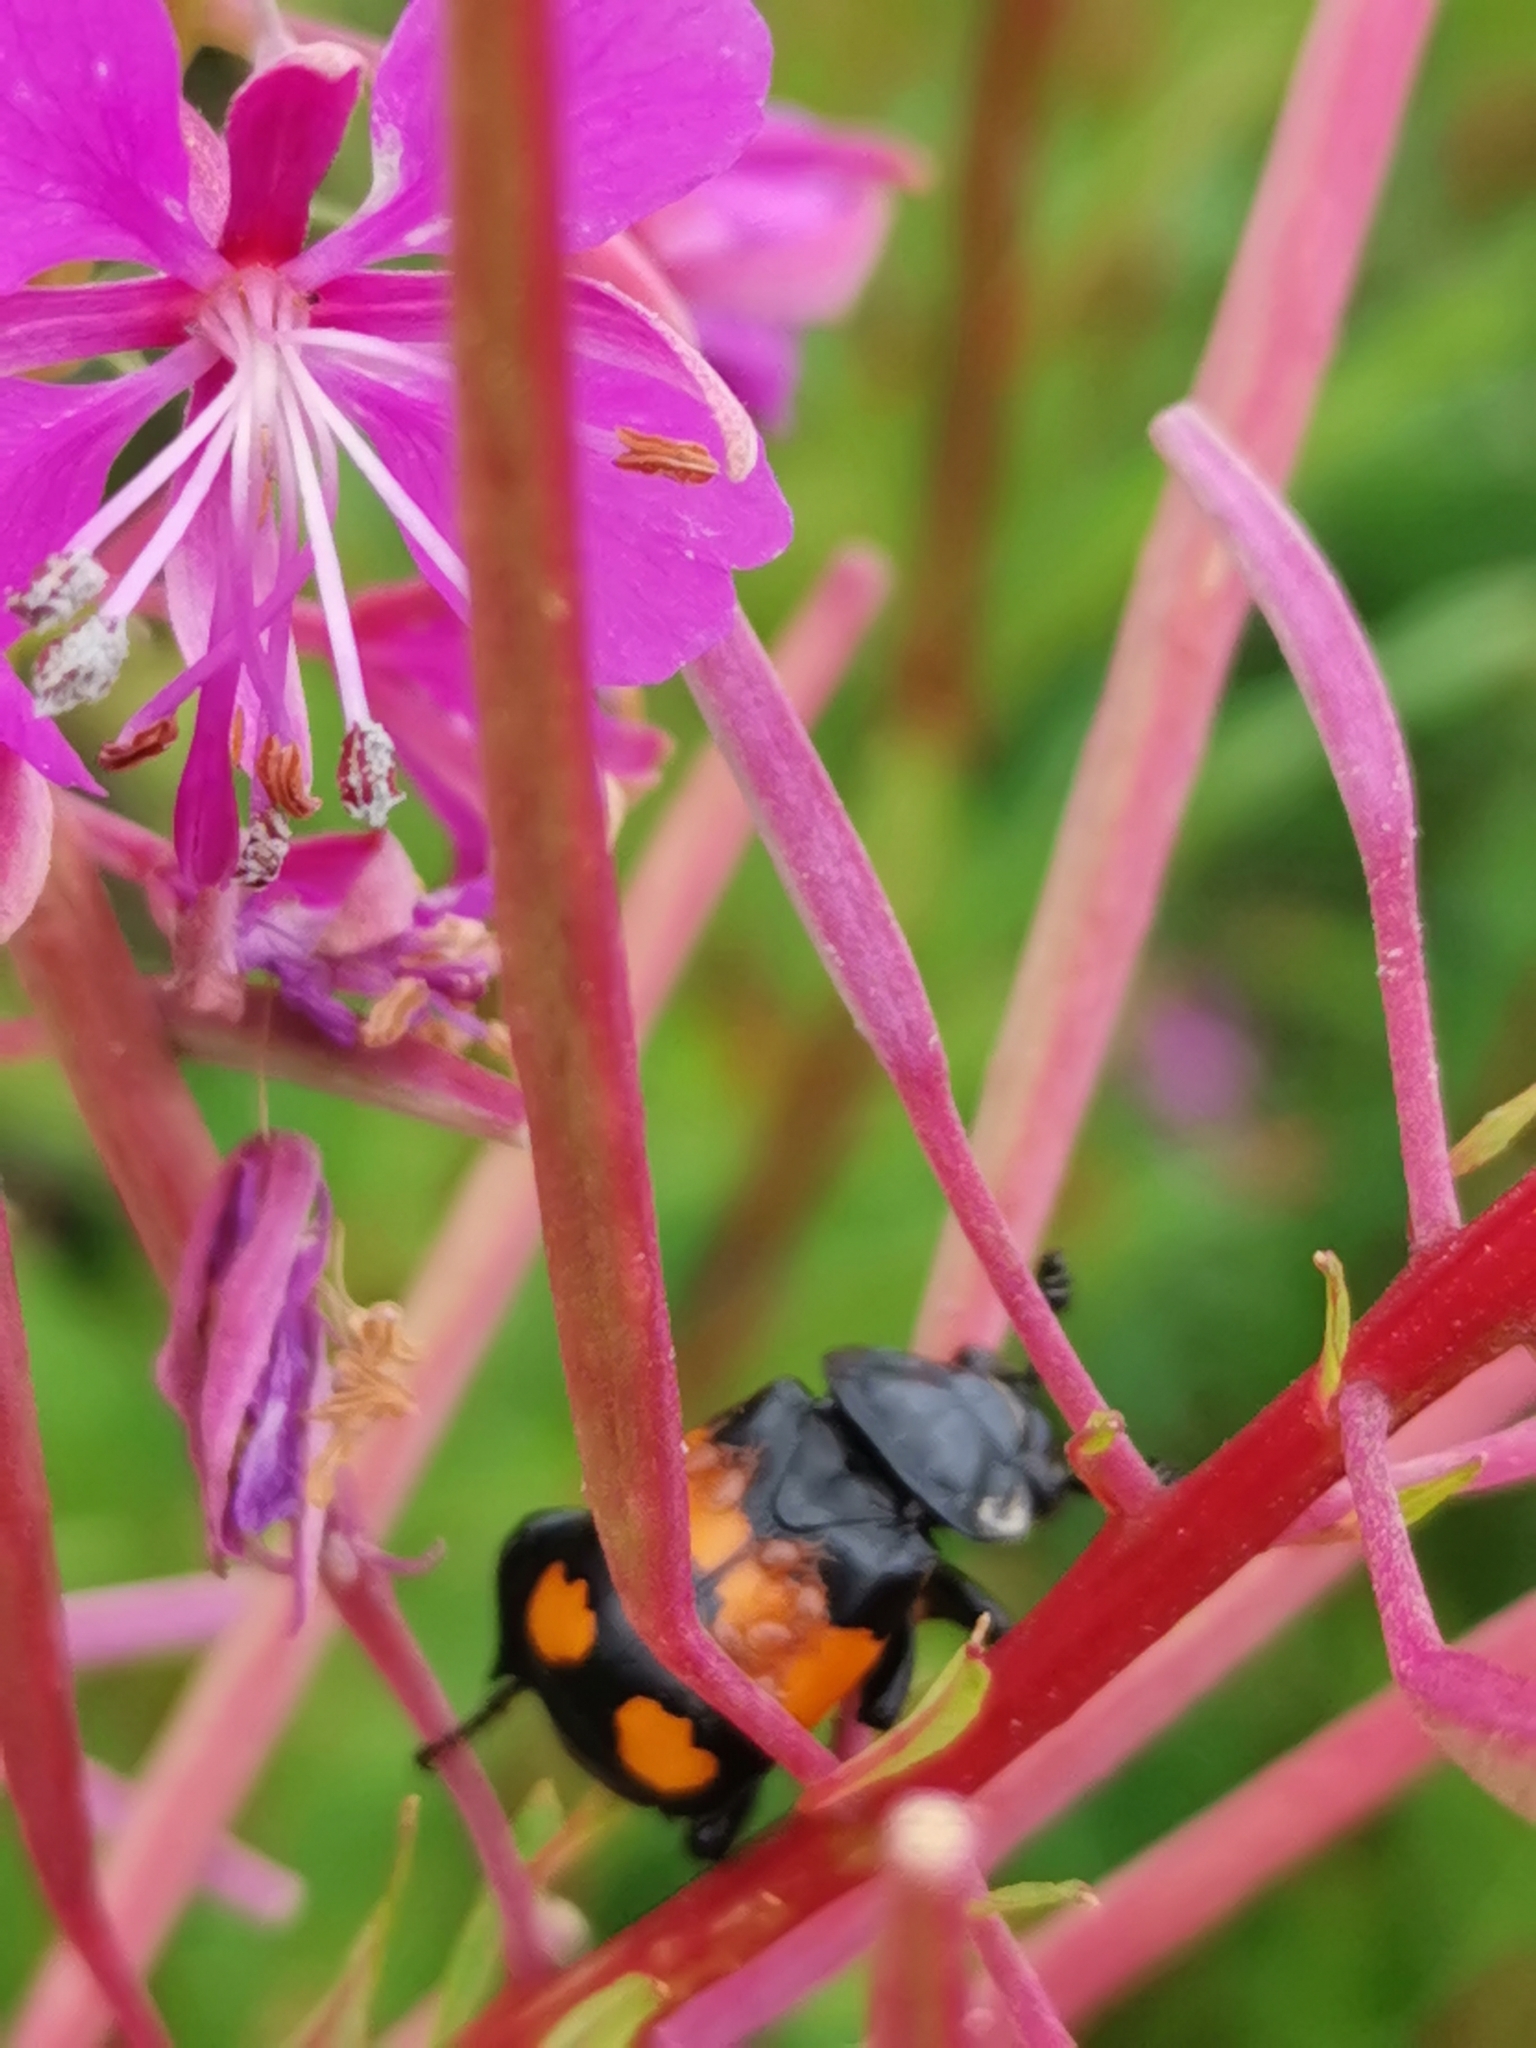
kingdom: Animalia
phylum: Arthropoda
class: Insecta
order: Coleoptera
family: Staphylinidae
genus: Nicrophorus
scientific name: Nicrophorus vespilloides
